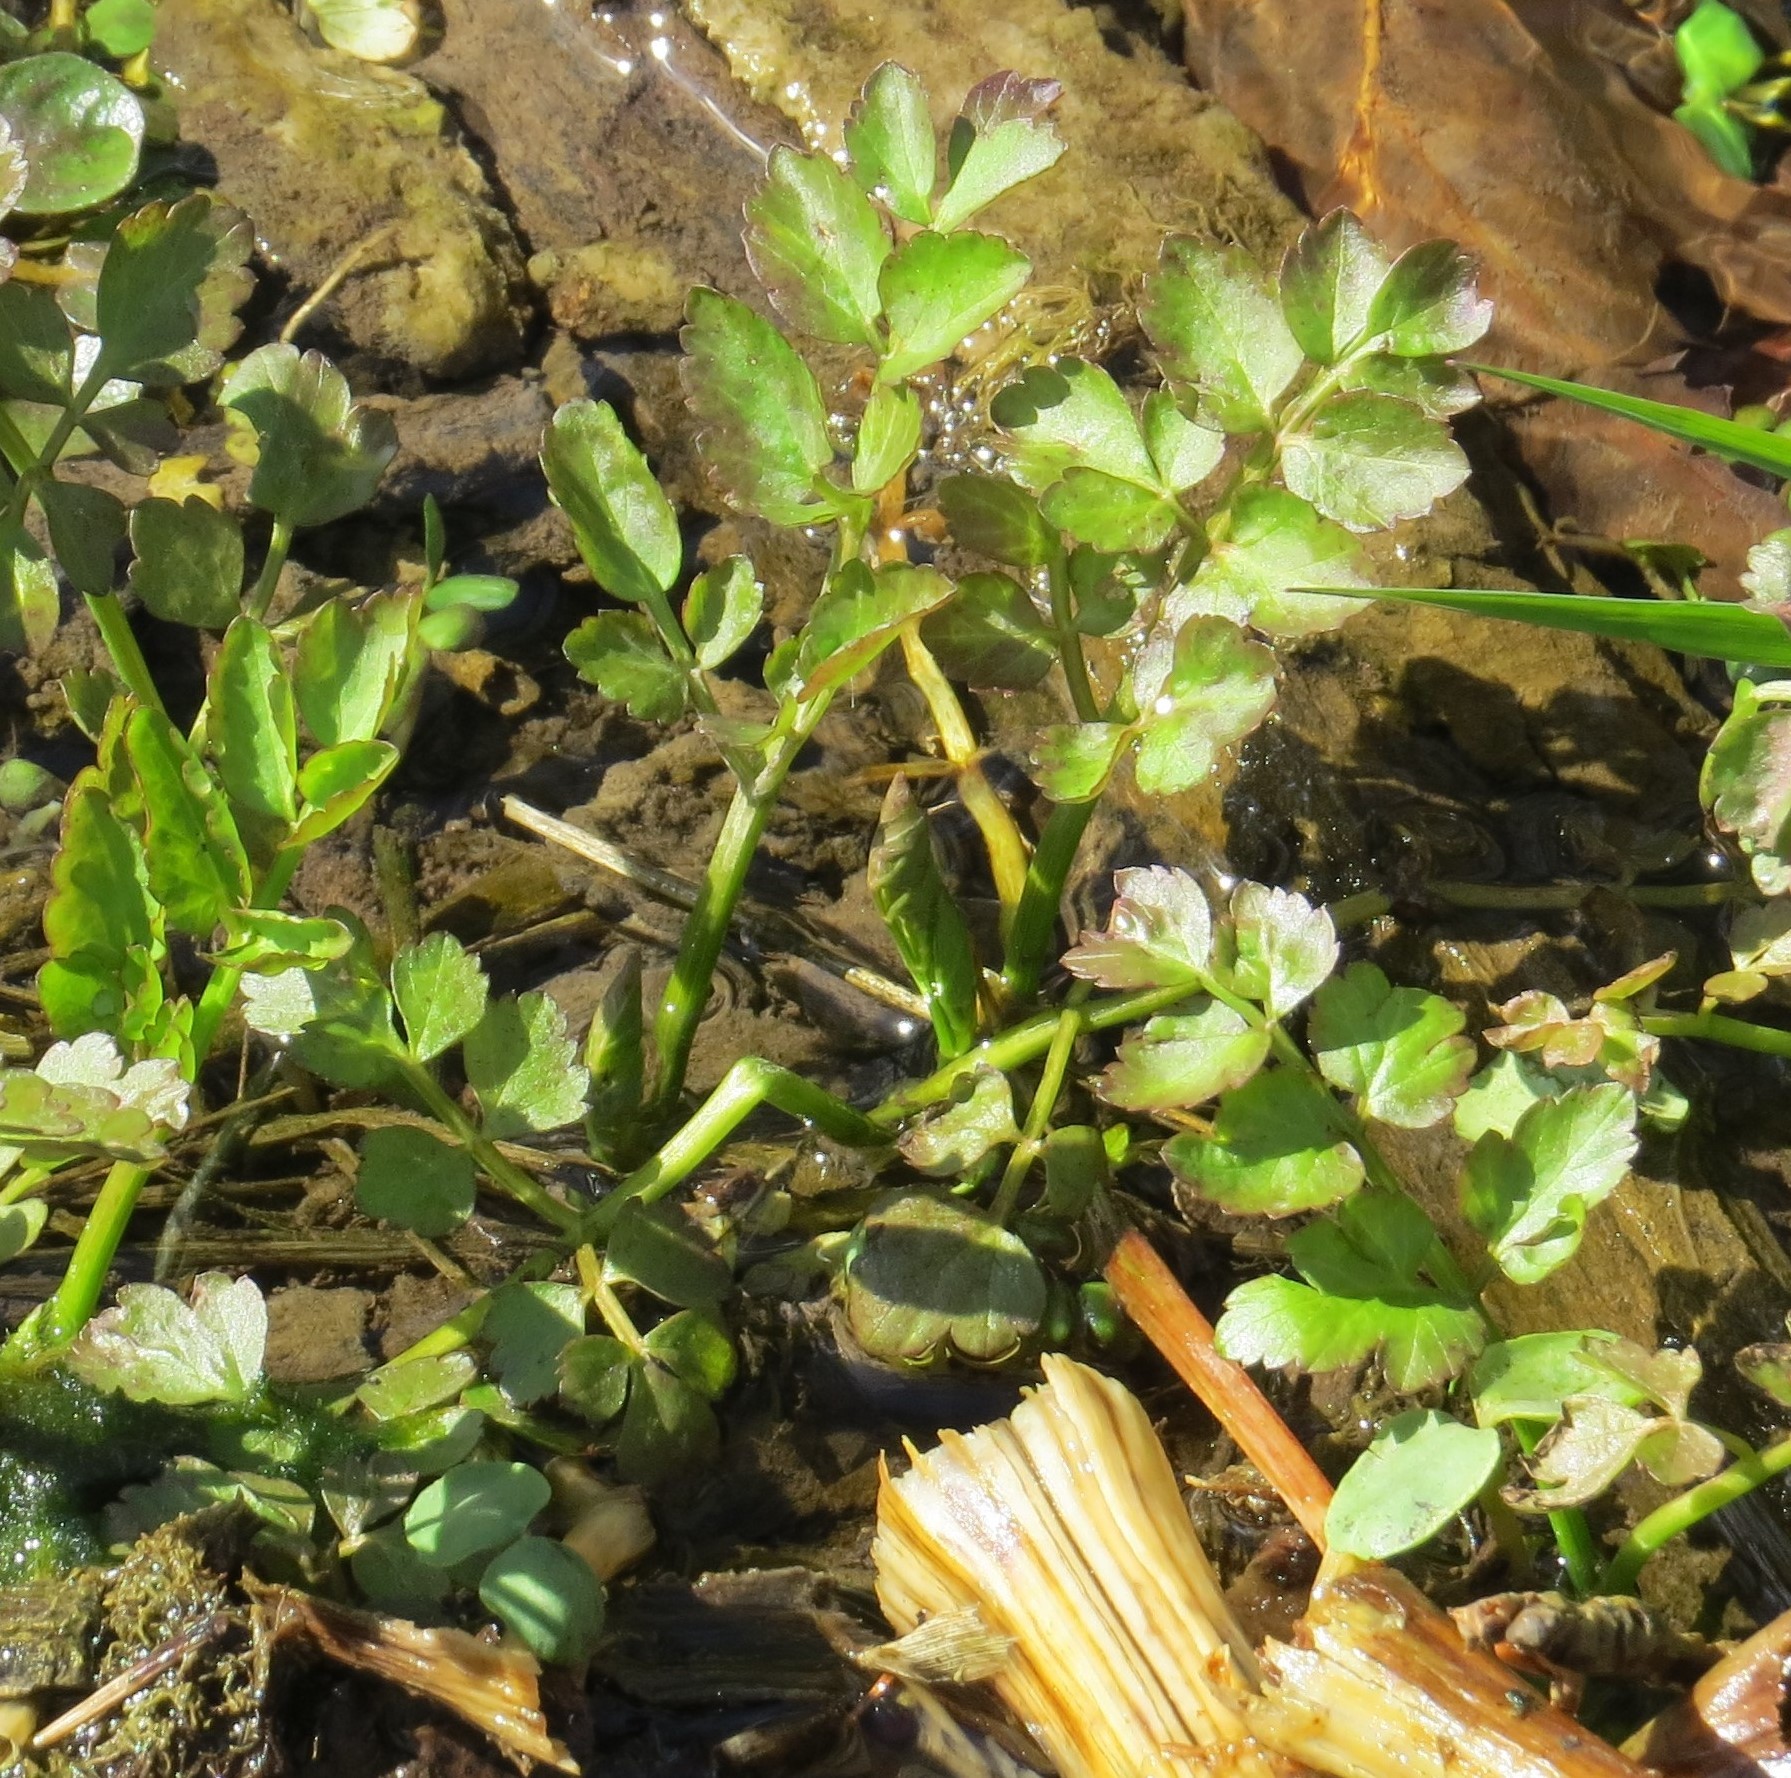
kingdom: Plantae
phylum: Tracheophyta
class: Magnoliopsida
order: Apiales
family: Apiaceae
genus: Berula
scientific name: Berula erecta
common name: Lesser water-parsnip
